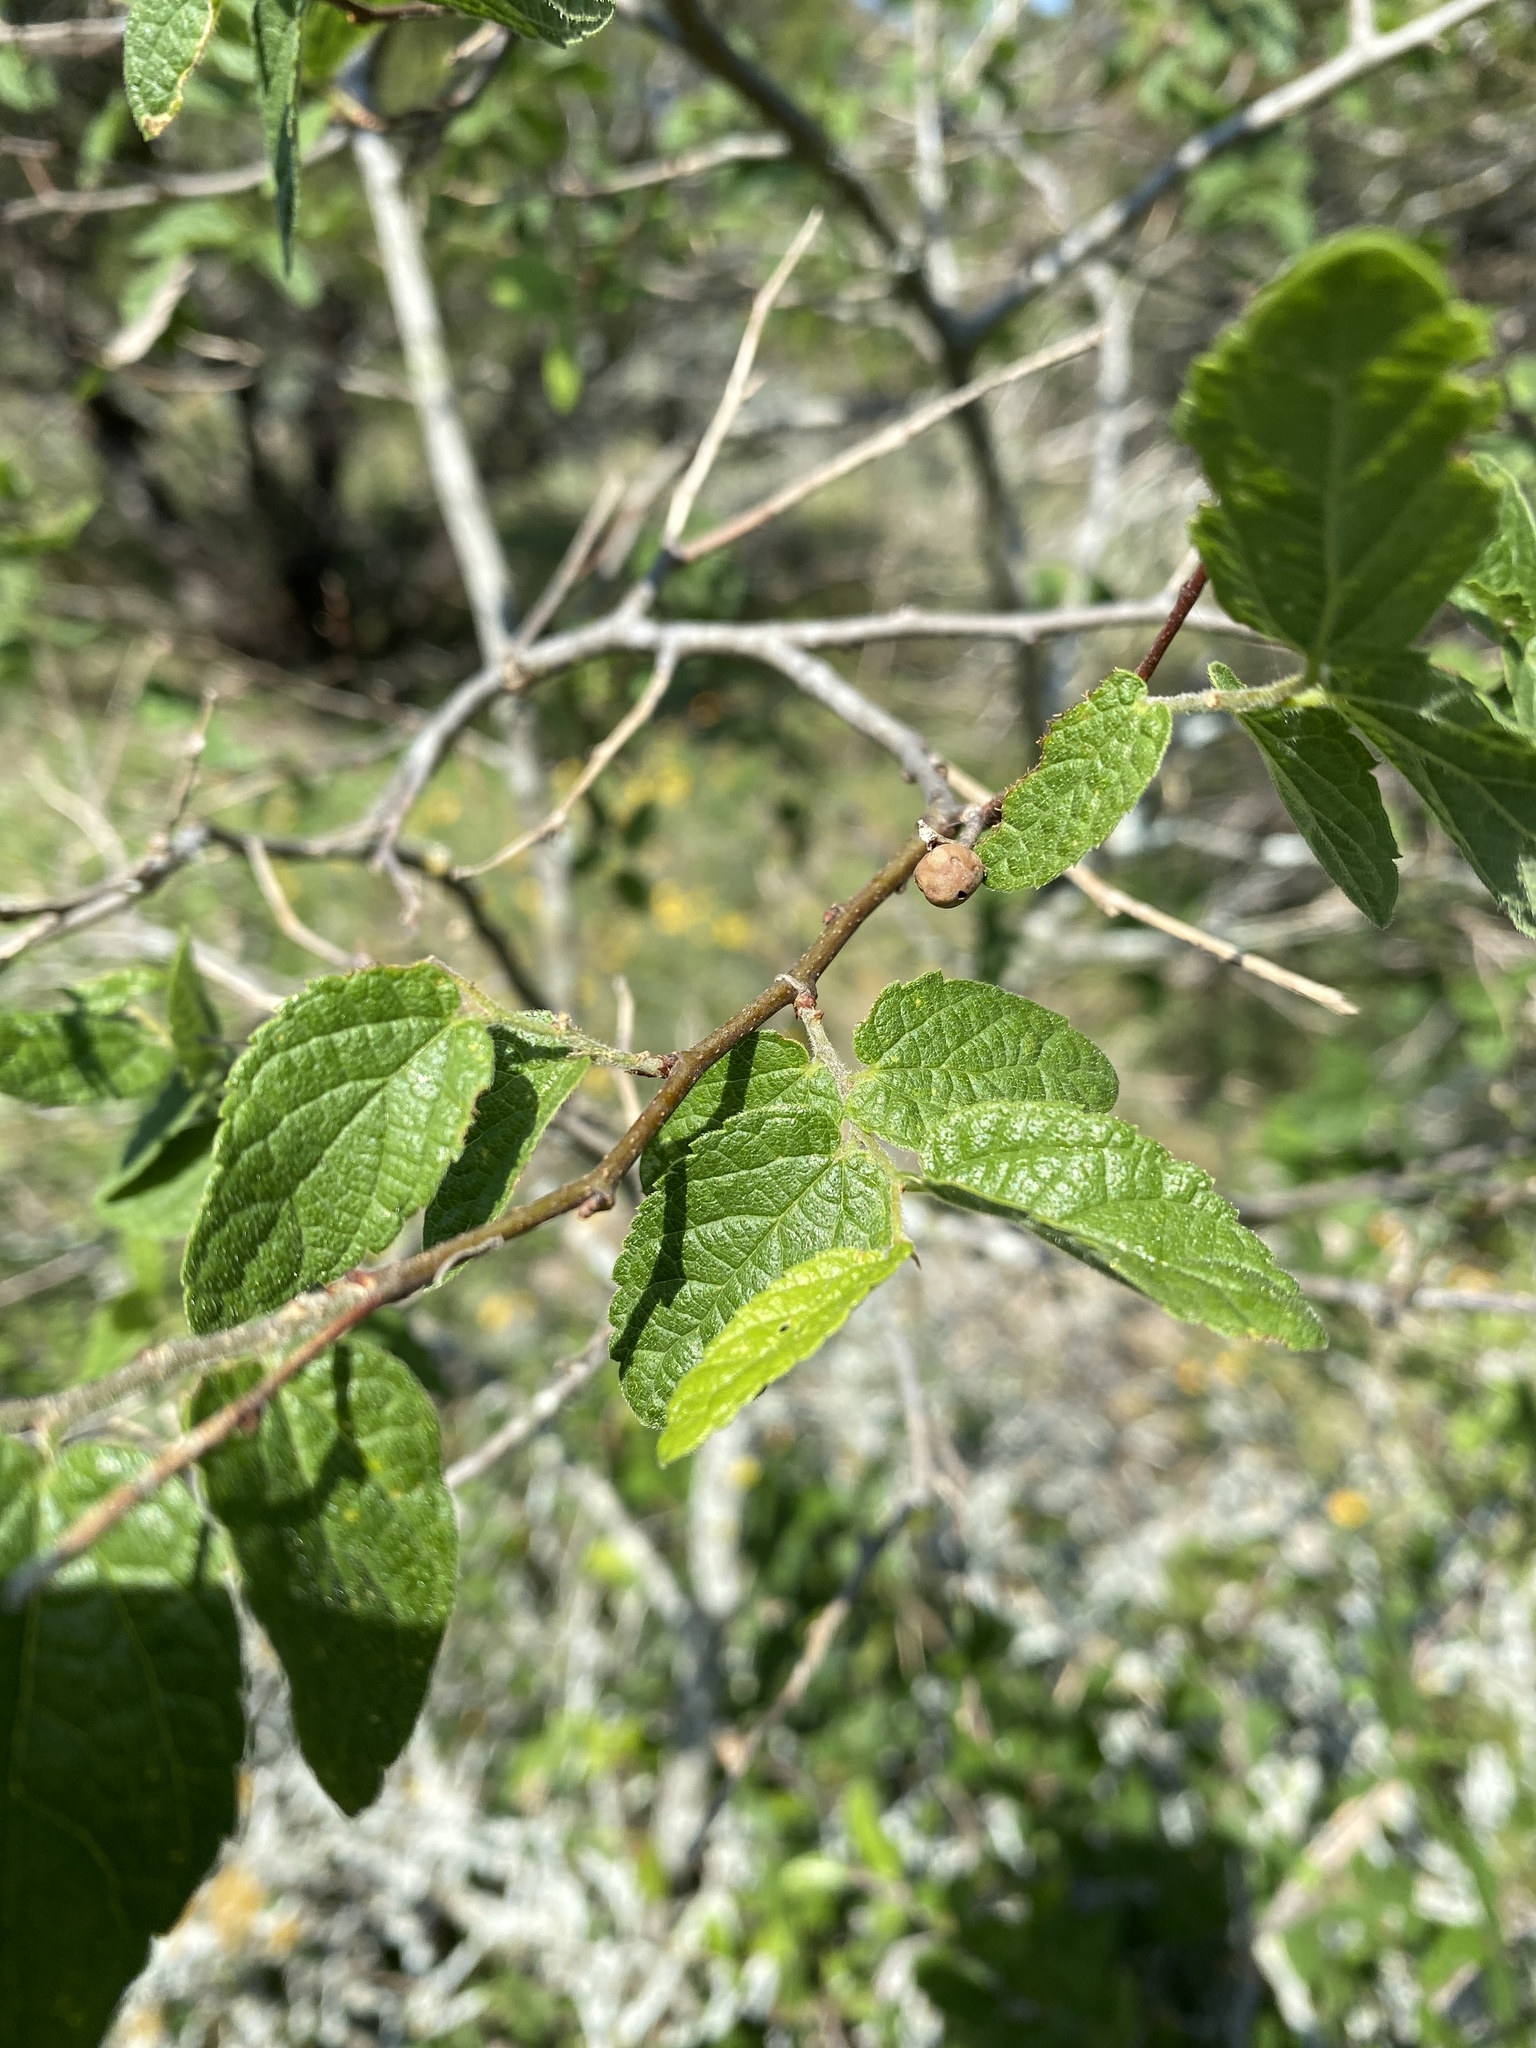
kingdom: Plantae
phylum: Tracheophyta
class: Magnoliopsida
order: Rosales
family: Cannabaceae
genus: Celtis
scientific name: Celtis reticulata
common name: Netleaf hackberry
